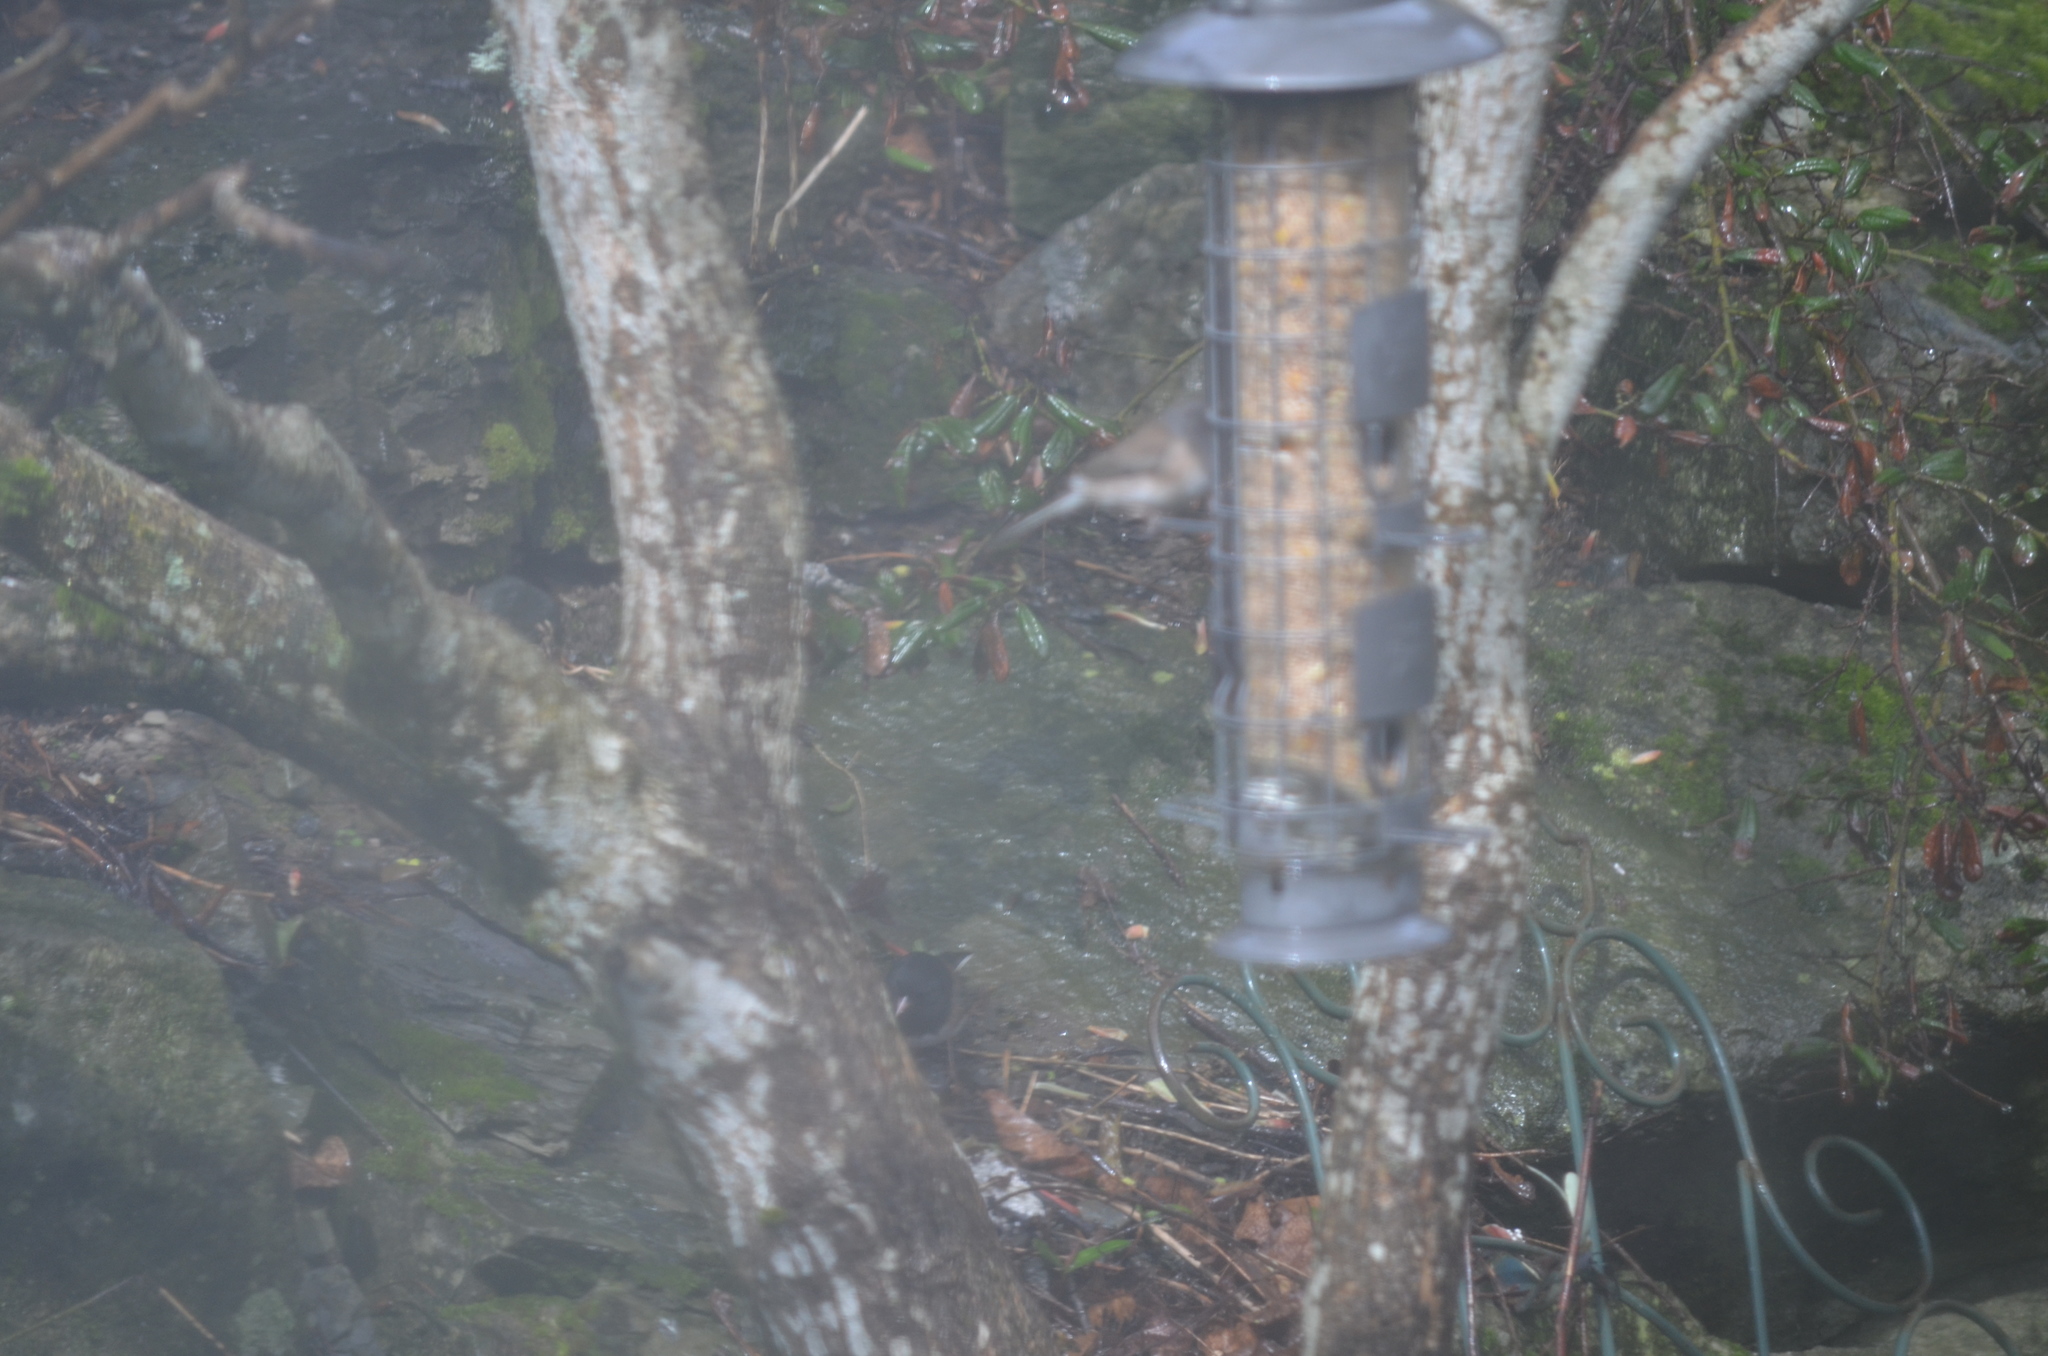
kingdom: Animalia
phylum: Chordata
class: Aves
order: Passeriformes
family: Passerellidae
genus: Junco
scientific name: Junco hyemalis
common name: Dark-eyed junco
